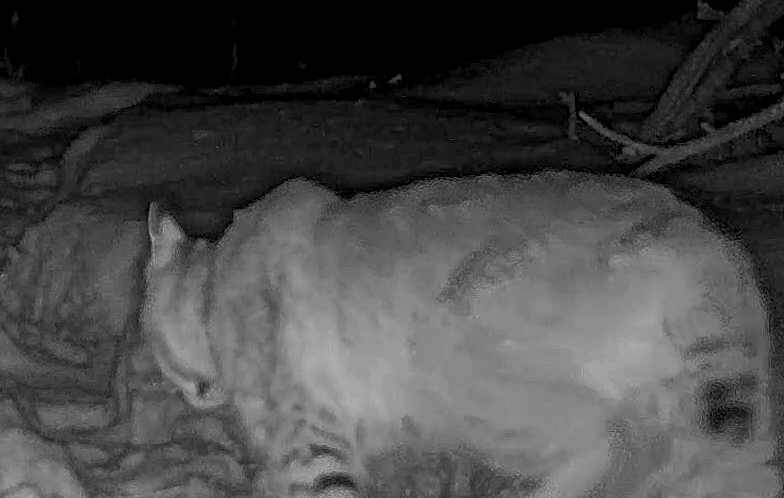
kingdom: Animalia
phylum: Chordata
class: Mammalia
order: Carnivora
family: Felidae
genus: Lynx
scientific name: Lynx rufus
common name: Bobcat
